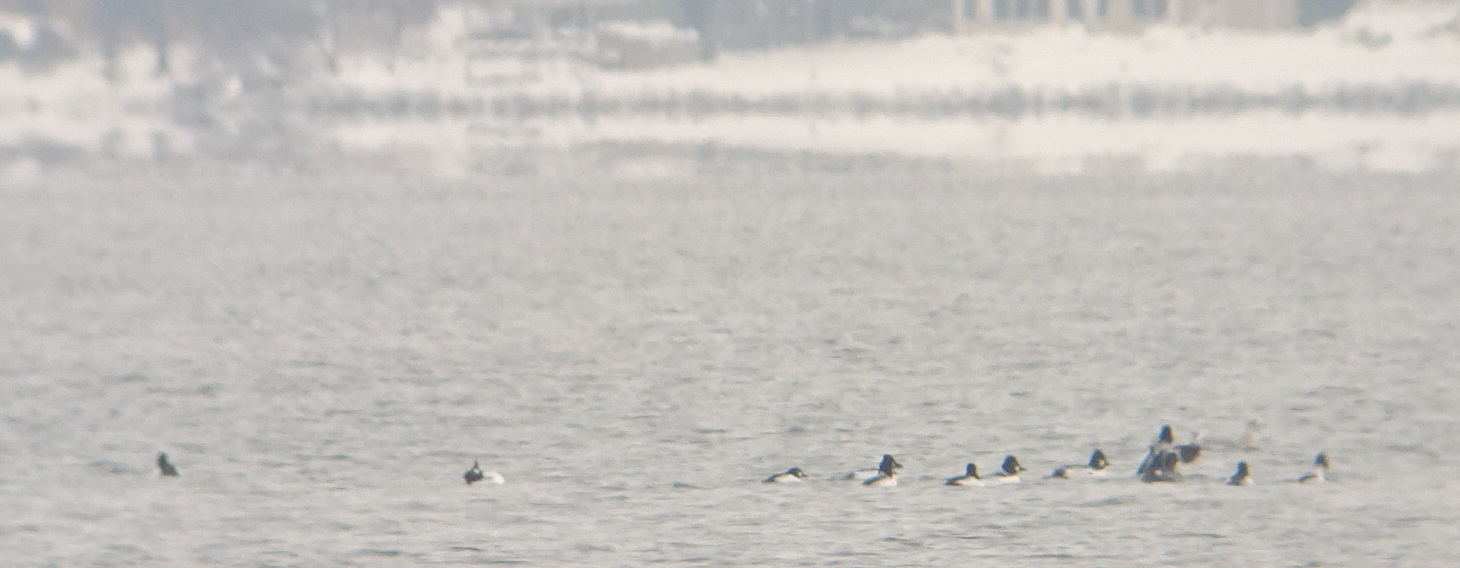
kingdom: Animalia
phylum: Chordata
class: Aves
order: Anseriformes
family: Anatidae
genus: Bucephala
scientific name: Bucephala clangula
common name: Common goldeneye
